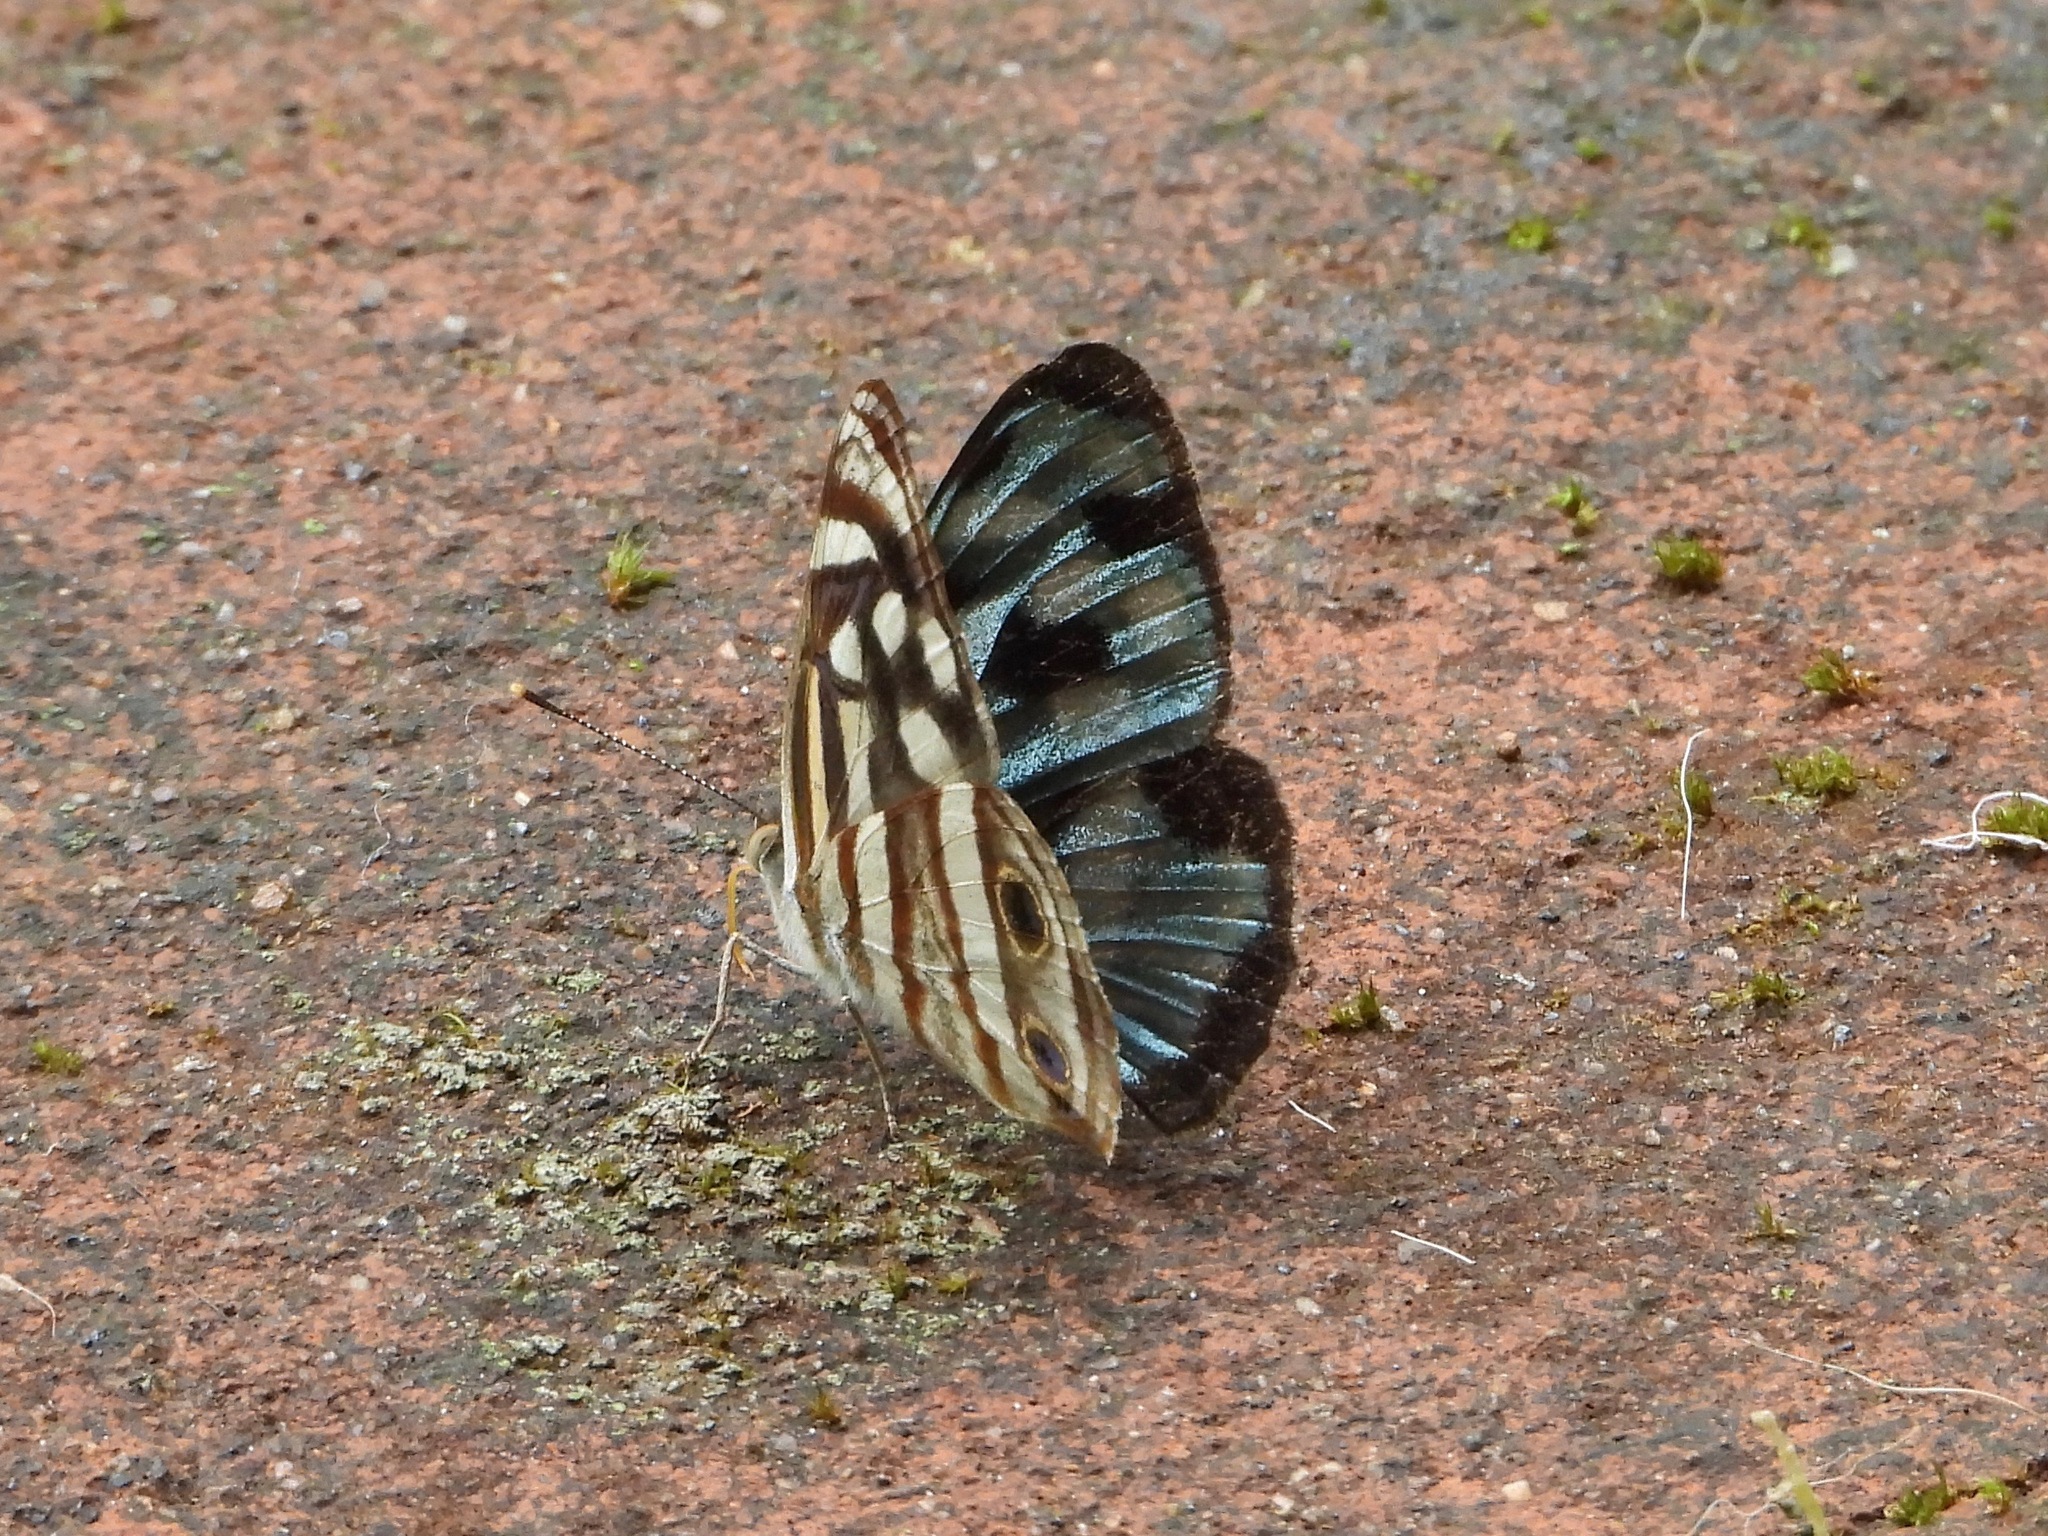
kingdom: Animalia
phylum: Arthropoda
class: Insecta
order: Lepidoptera
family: Nymphalidae
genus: Dynamine
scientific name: Dynamine mylitta
